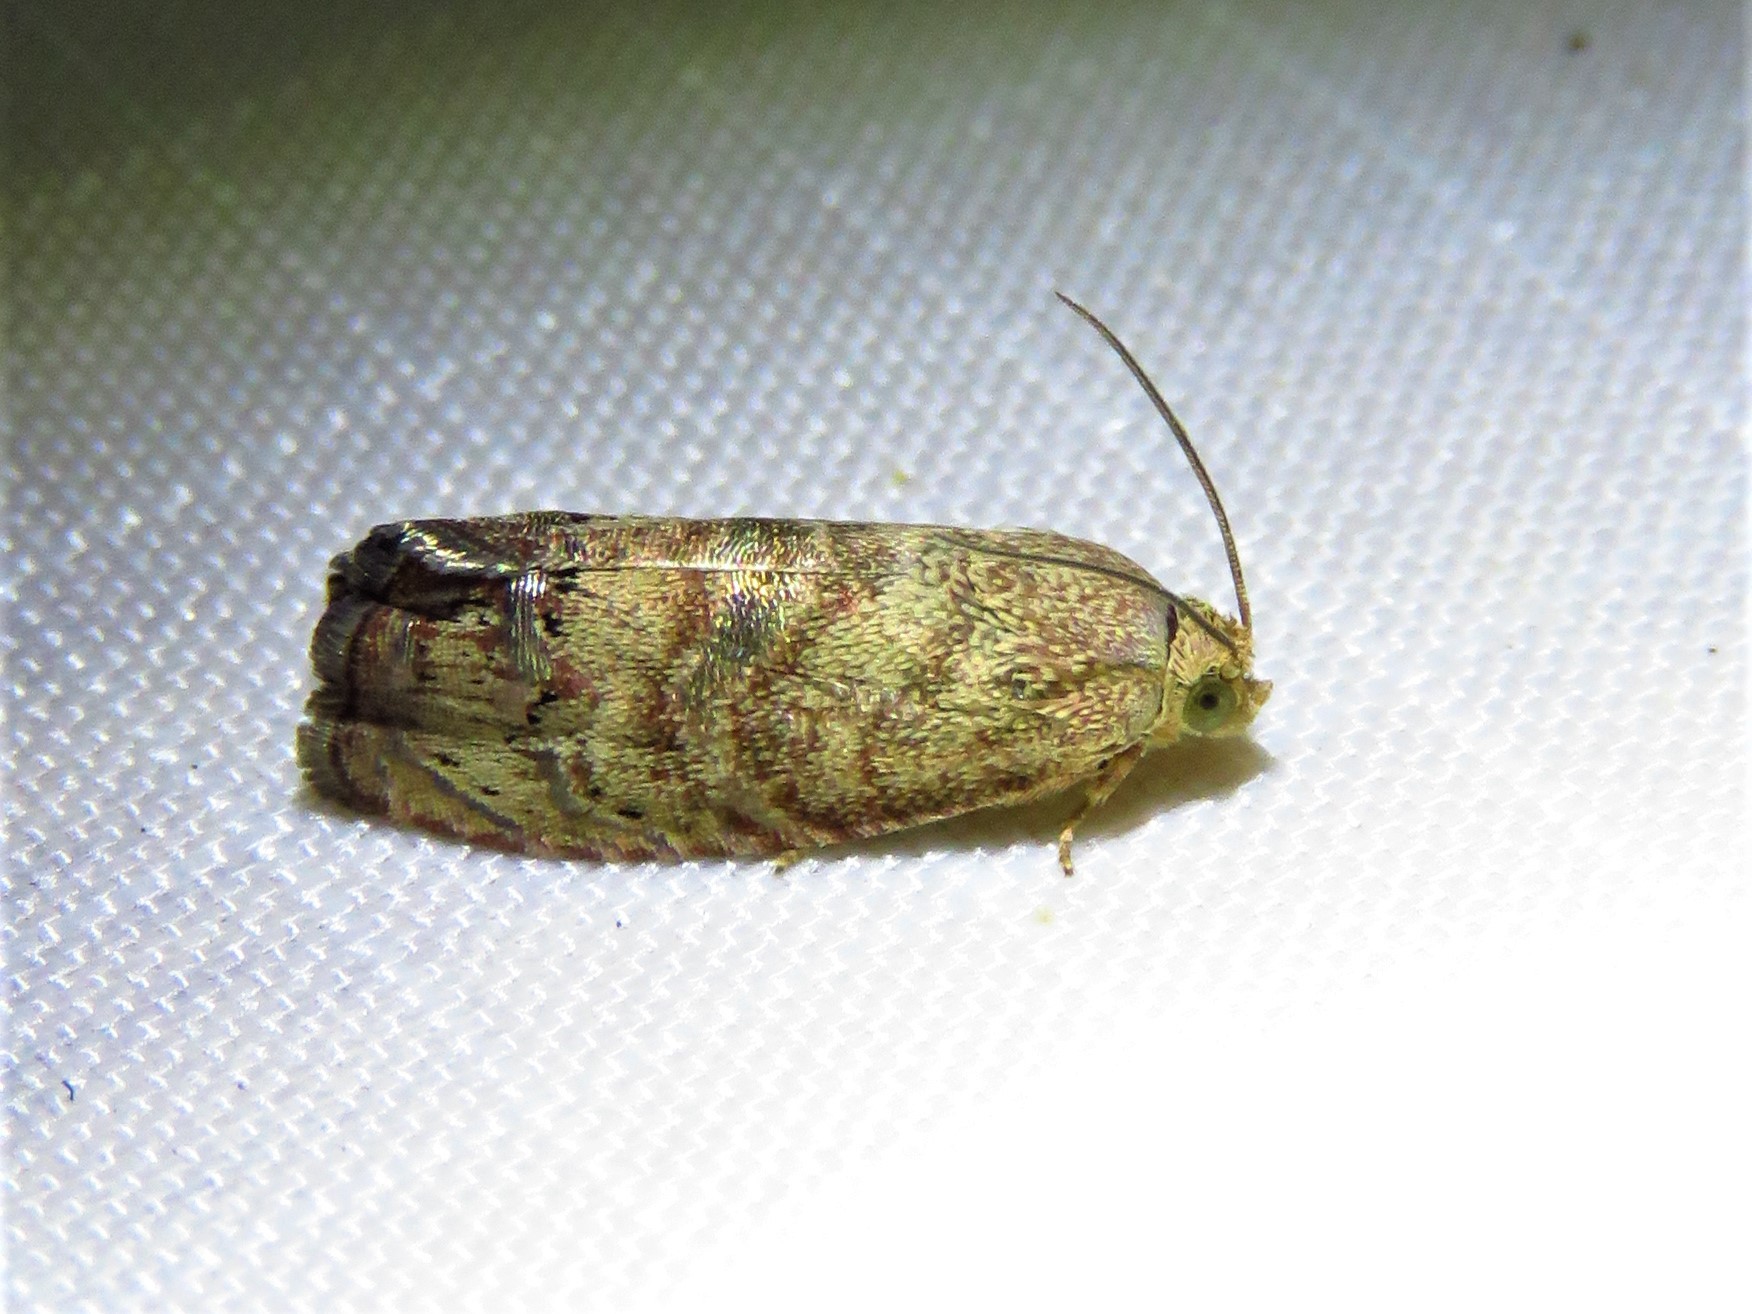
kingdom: Animalia
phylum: Arthropoda
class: Insecta
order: Lepidoptera
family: Tortricidae
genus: Cydia
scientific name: Cydia latiferreana
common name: Filbertworm moth
